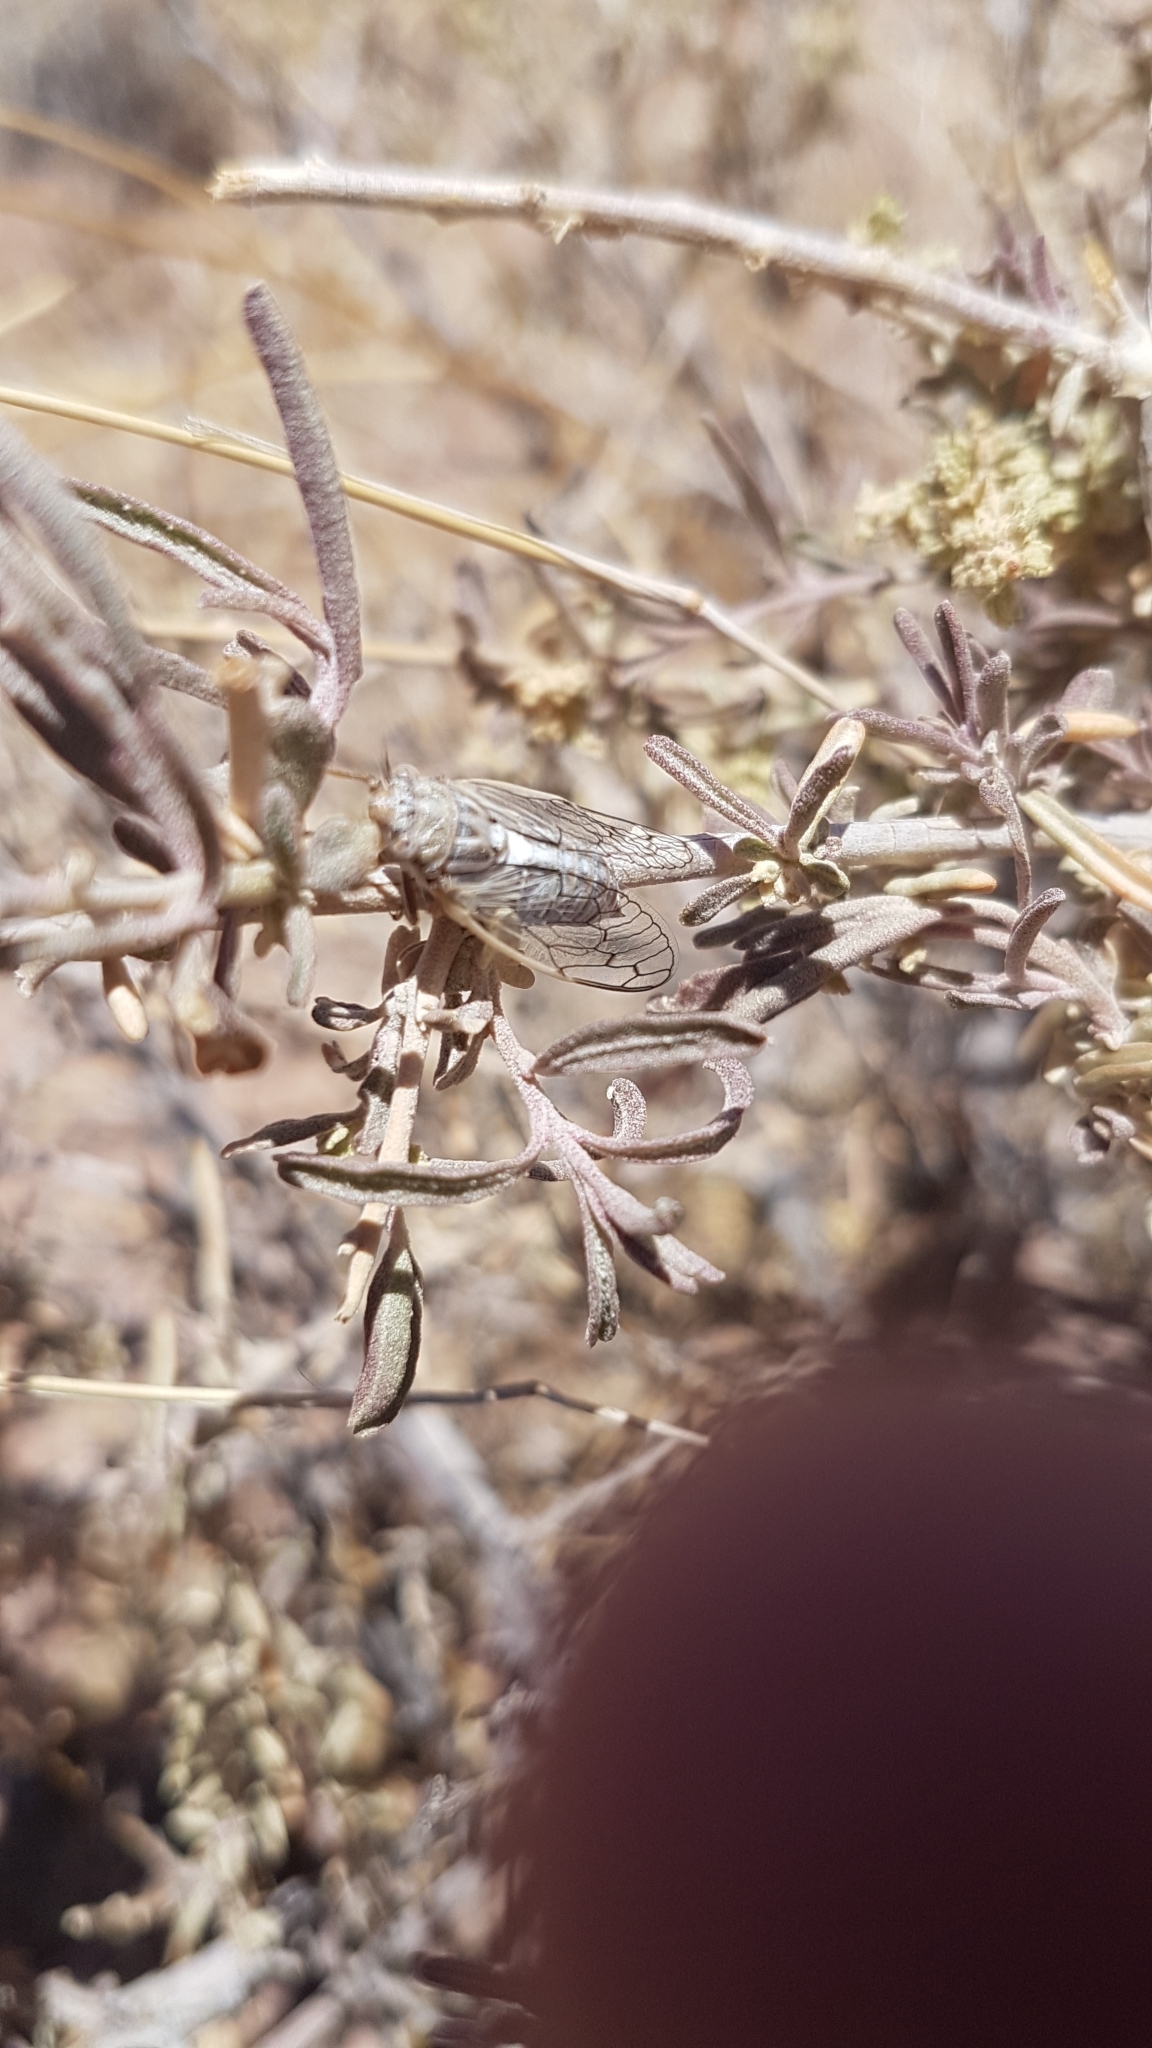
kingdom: Animalia
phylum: Arthropoda
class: Insecta
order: Hemiptera
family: Cicadidae
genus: Beameria
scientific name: Beameria venosa
